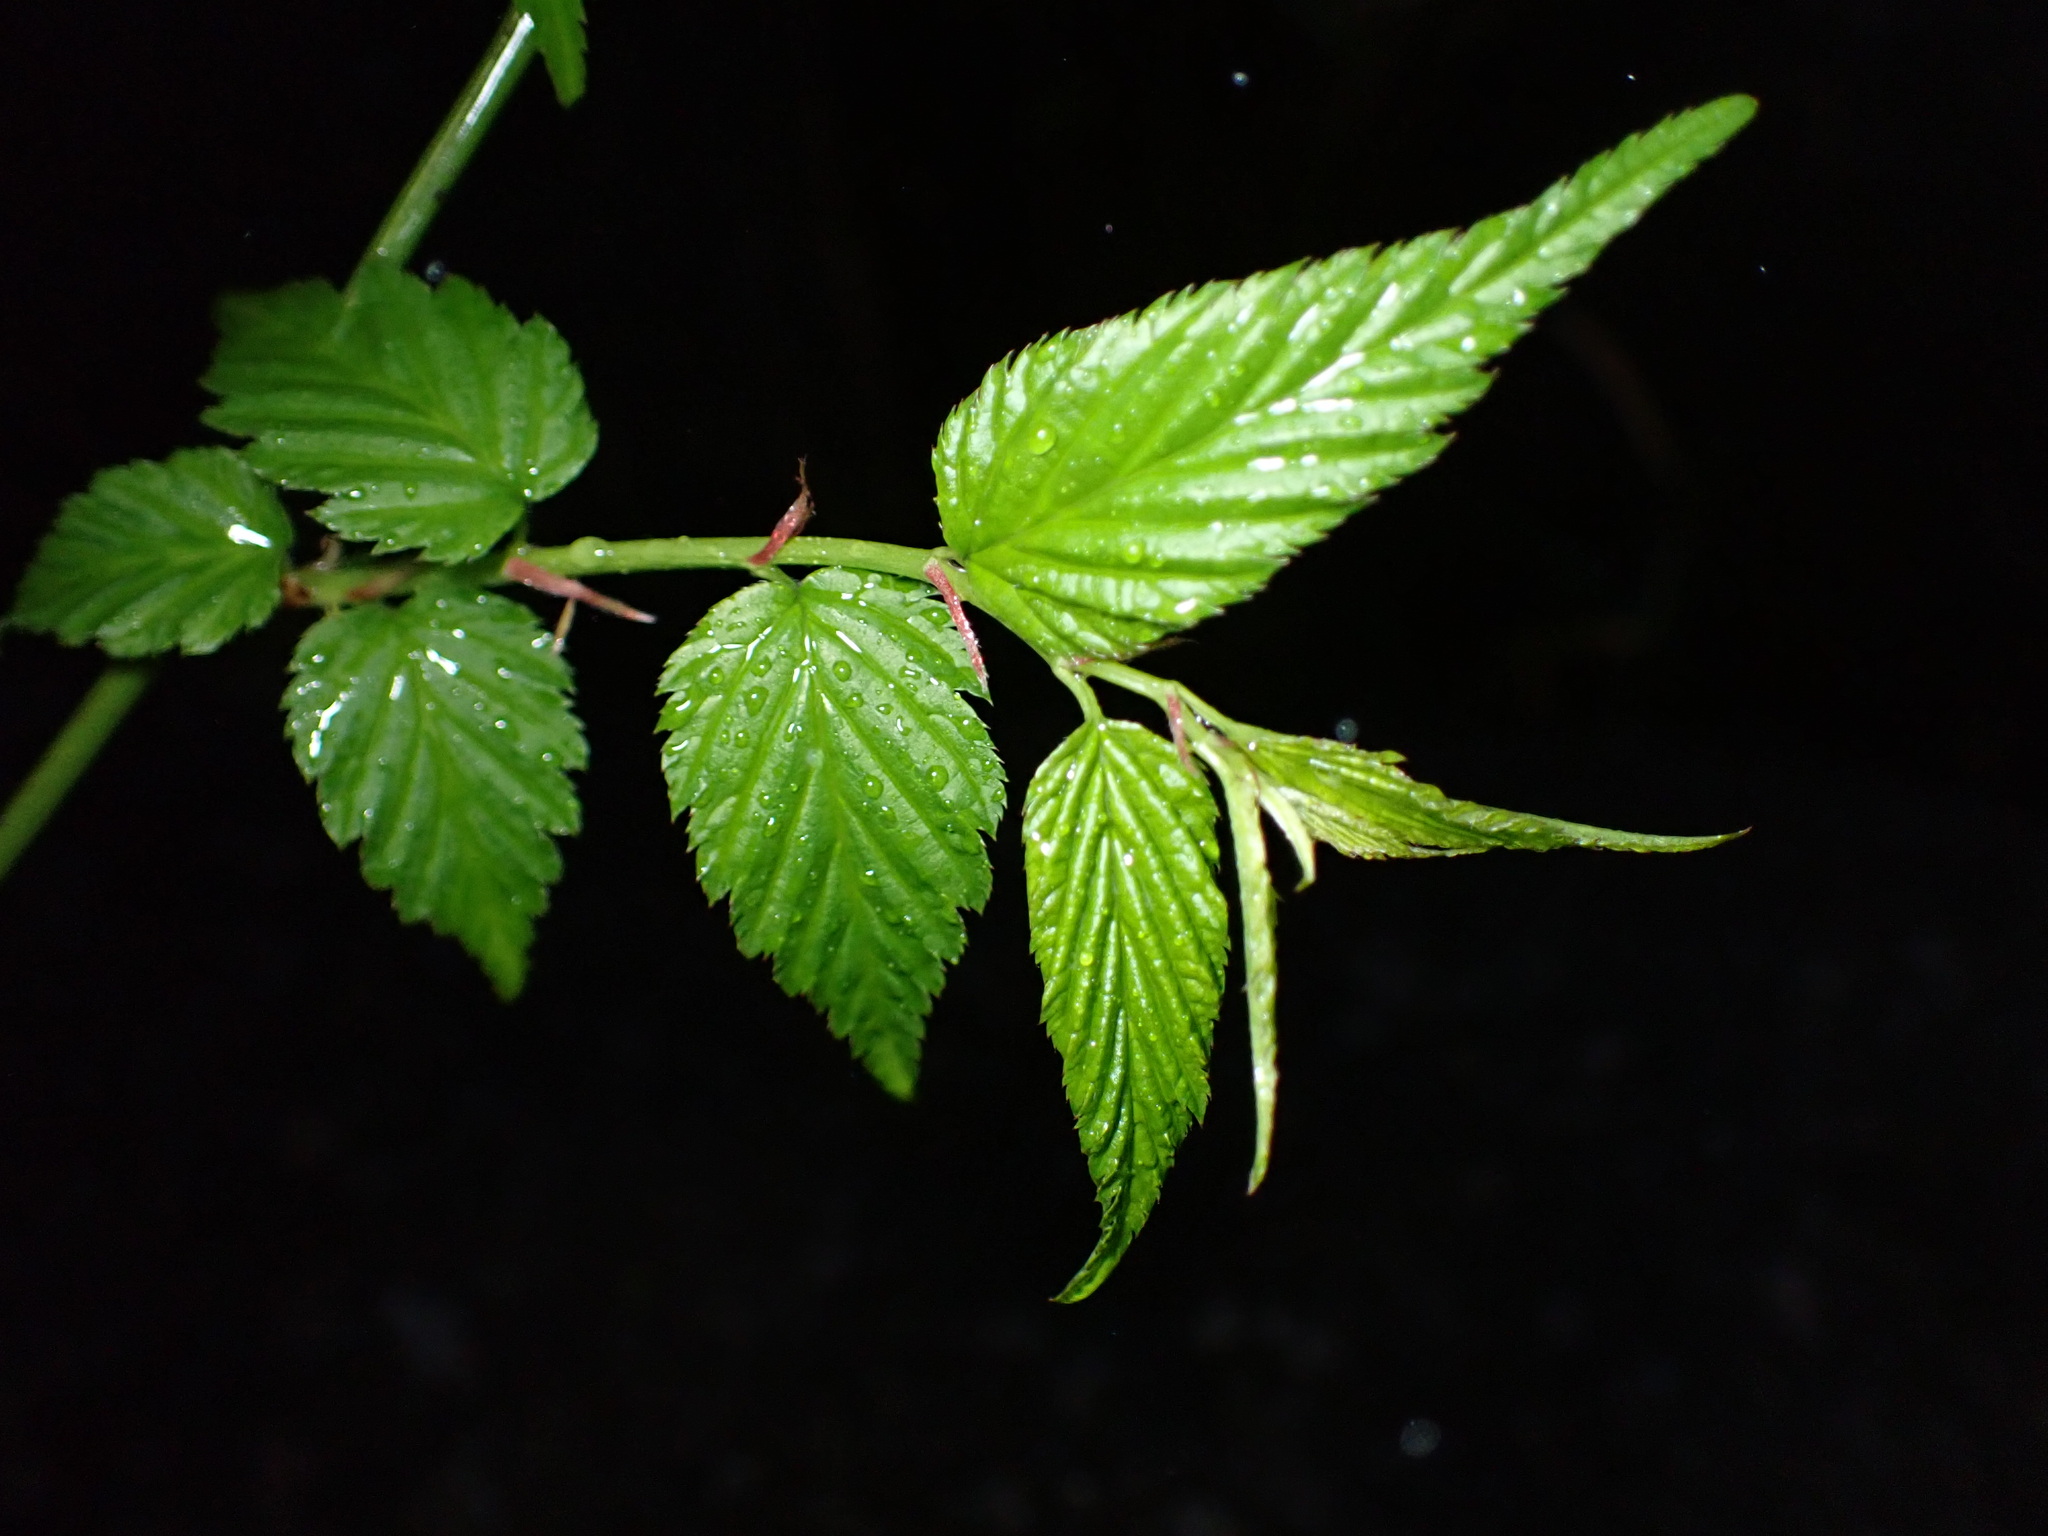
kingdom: Plantae
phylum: Tracheophyta
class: Magnoliopsida
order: Rosales
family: Rosaceae
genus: Kerria
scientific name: Kerria japonica
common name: Japanese kerria
